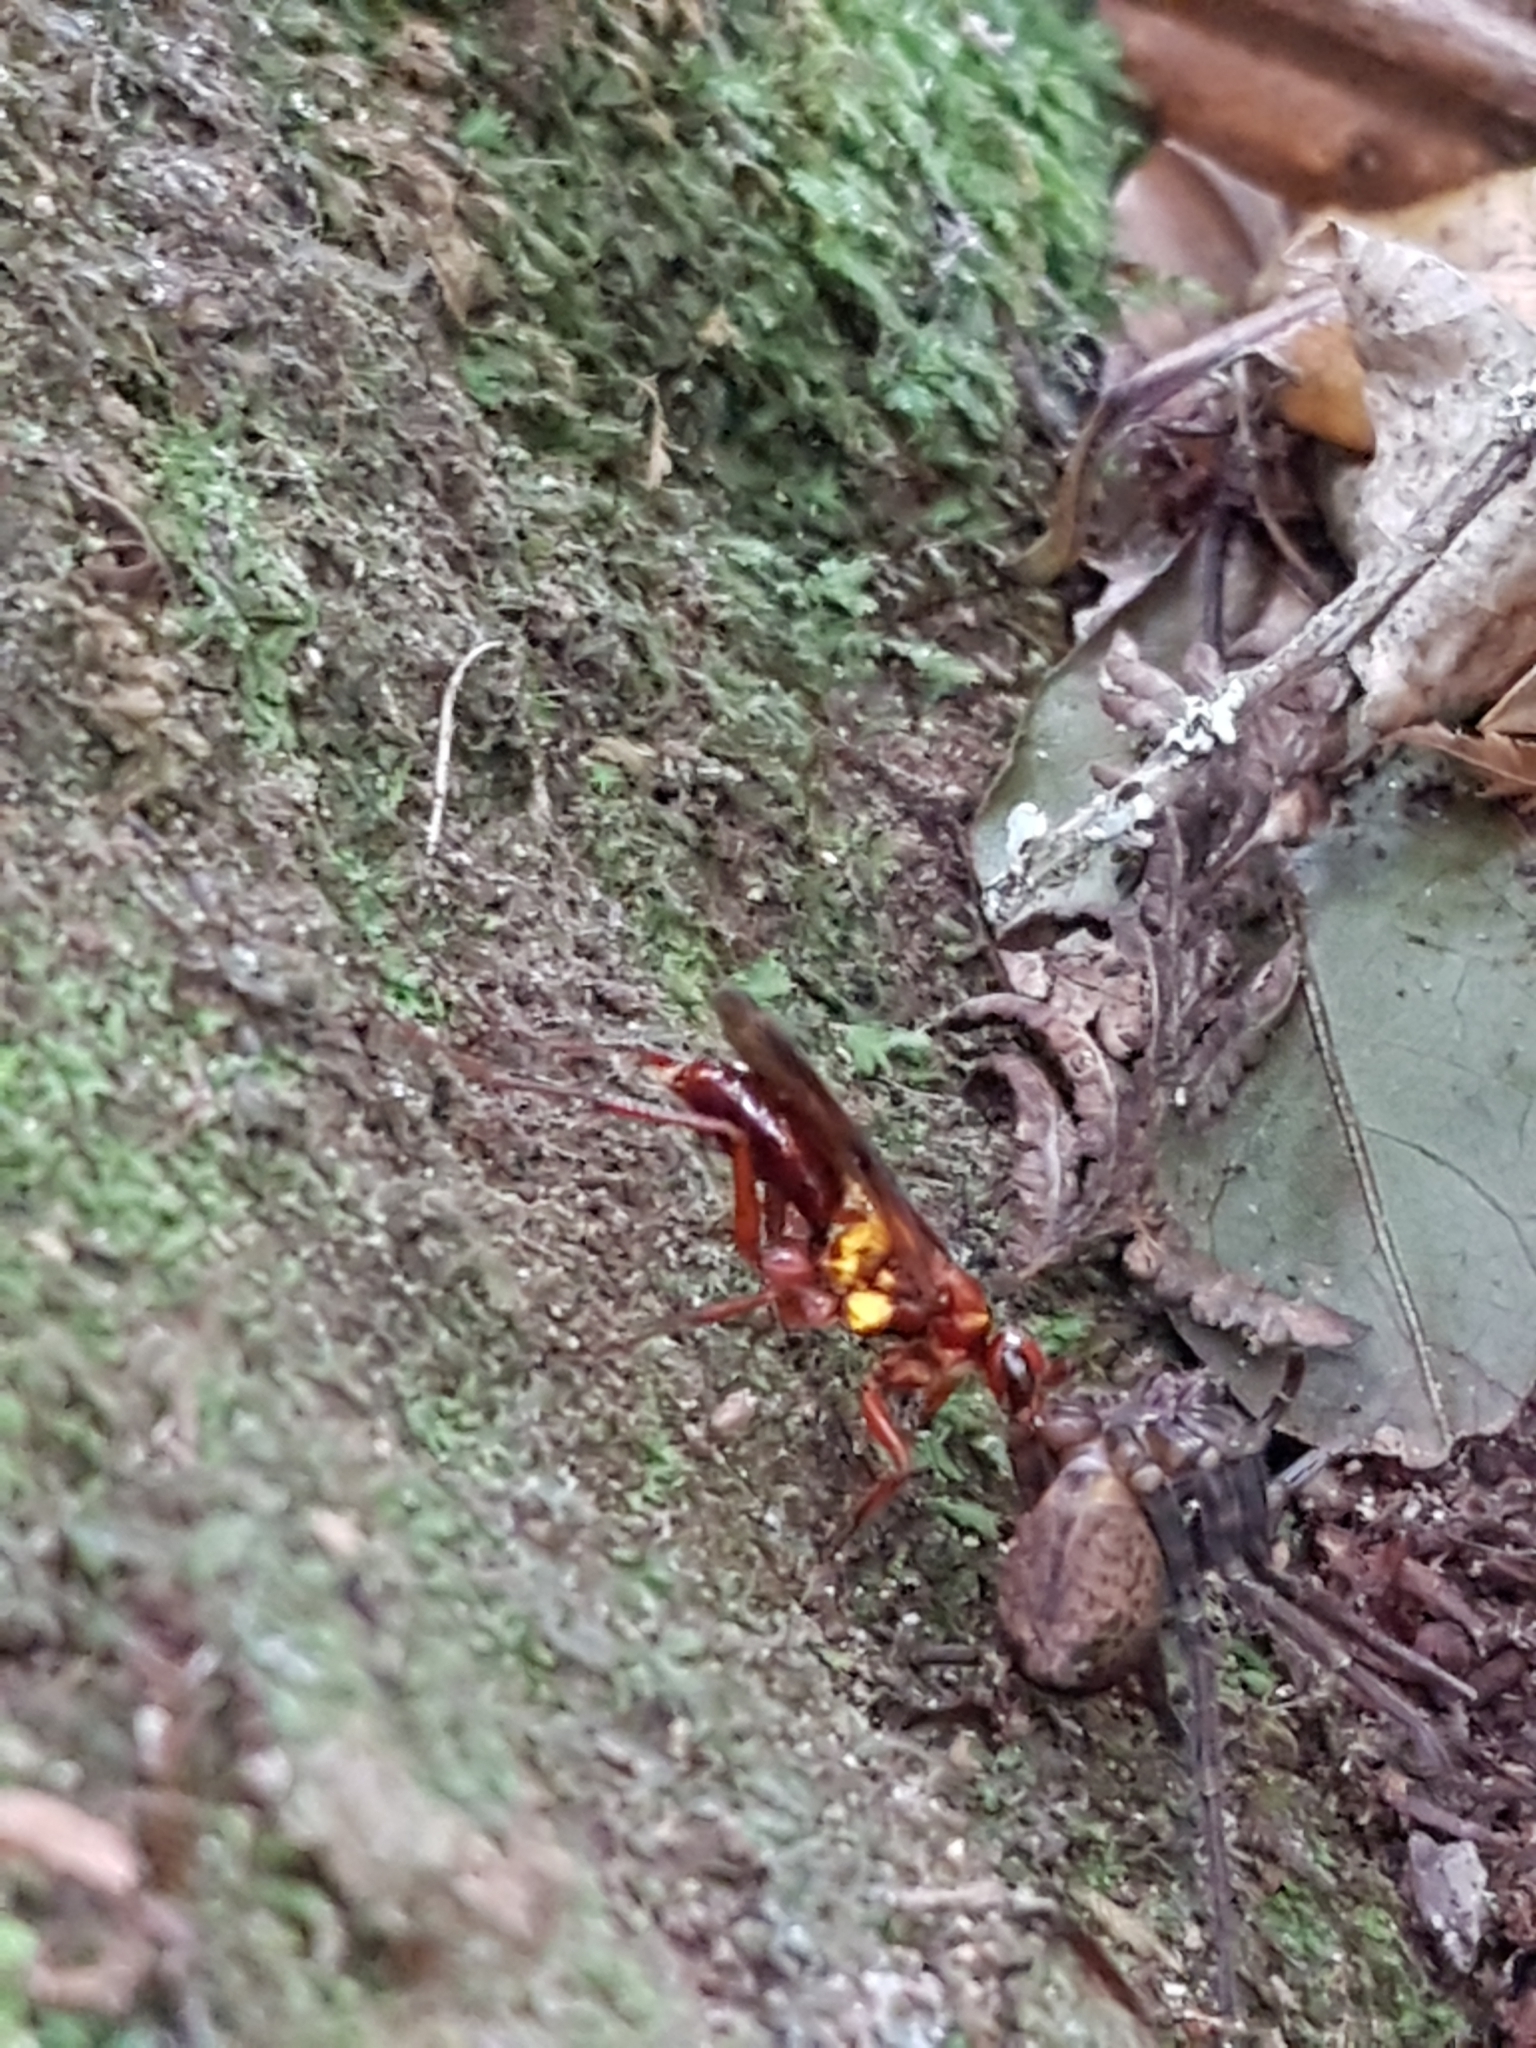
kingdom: Animalia
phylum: Arthropoda
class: Insecta
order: Hymenoptera
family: Pompilidae
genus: Sphictostethus
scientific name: Sphictostethus nitidus
